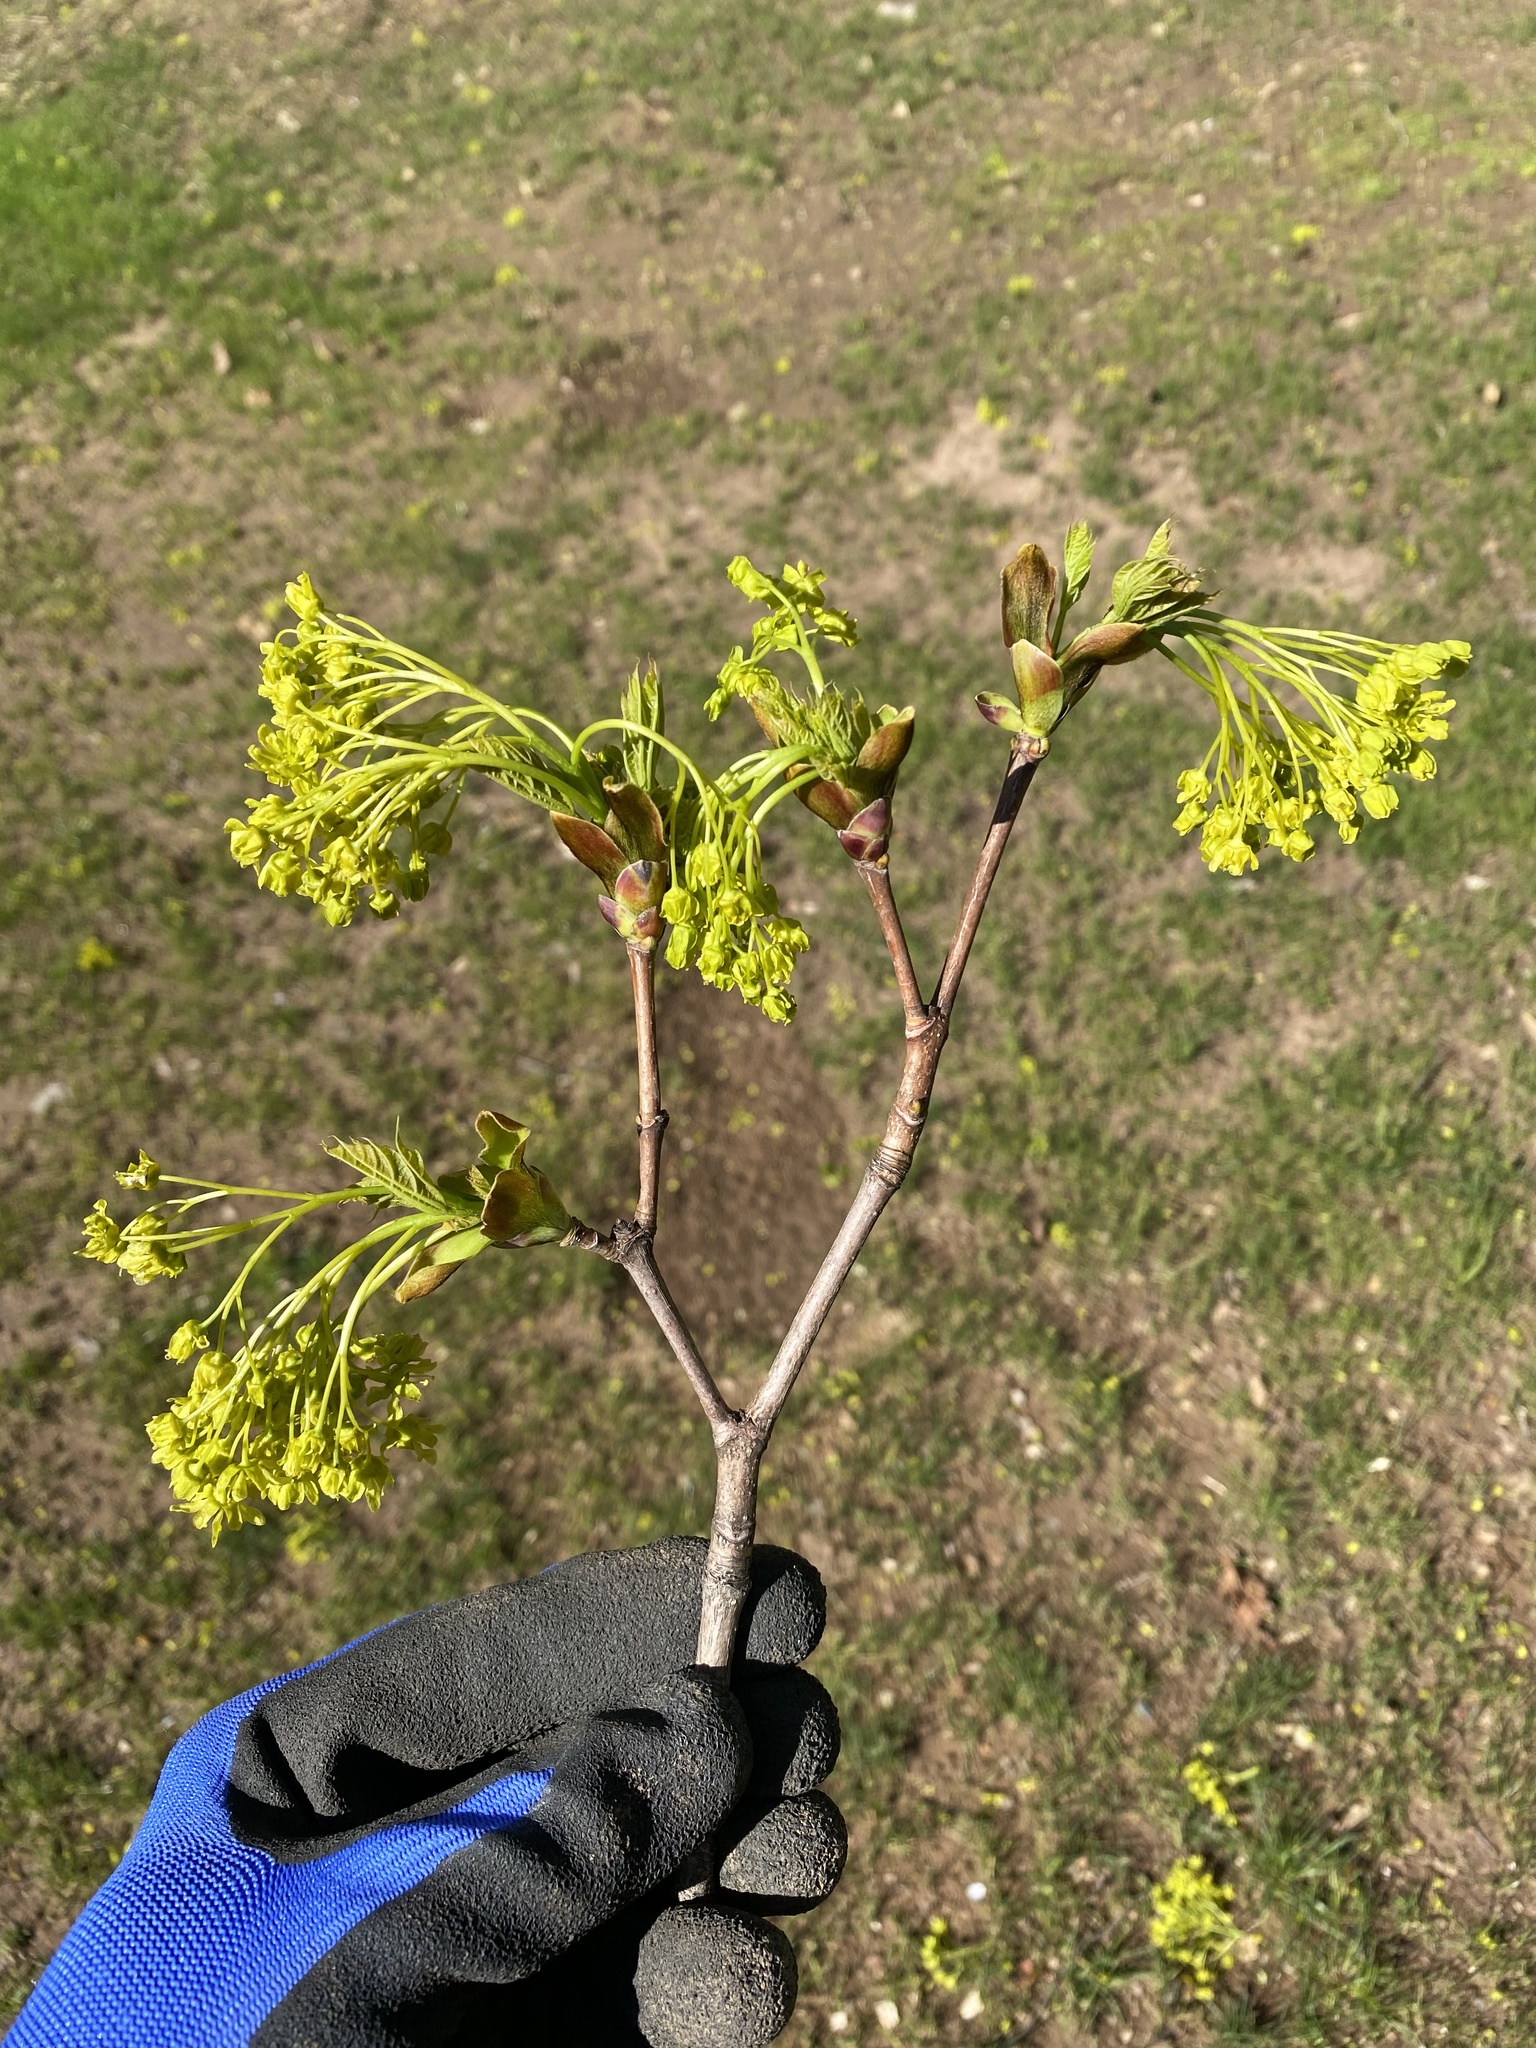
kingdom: Plantae
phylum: Tracheophyta
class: Magnoliopsida
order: Sapindales
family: Sapindaceae
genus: Acer
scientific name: Acer platanoides
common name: Norway maple
